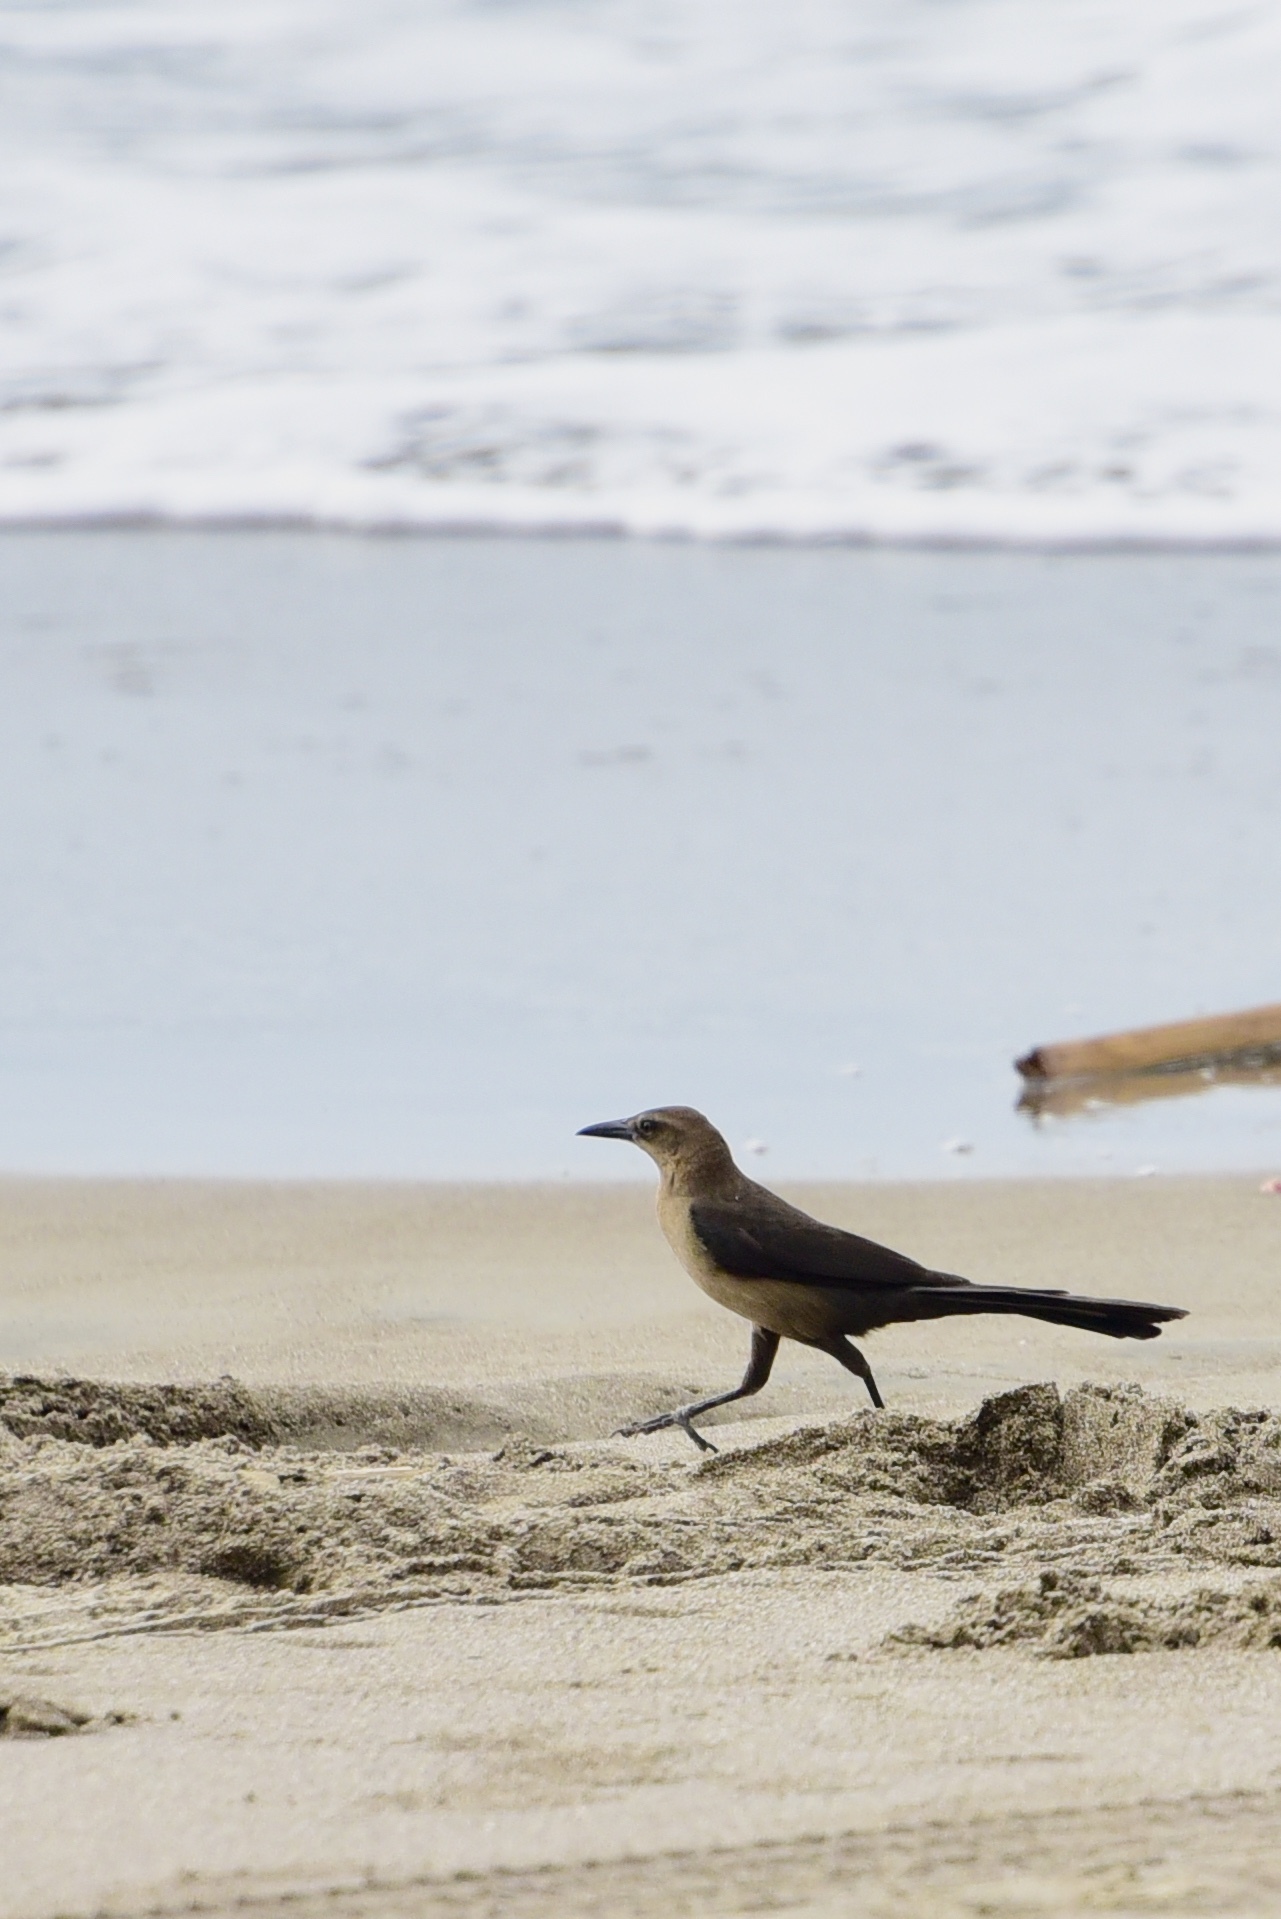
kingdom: Animalia
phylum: Chordata
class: Aves
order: Passeriformes
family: Icteridae
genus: Quiscalus
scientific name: Quiscalus mexicanus
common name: Great-tailed grackle
